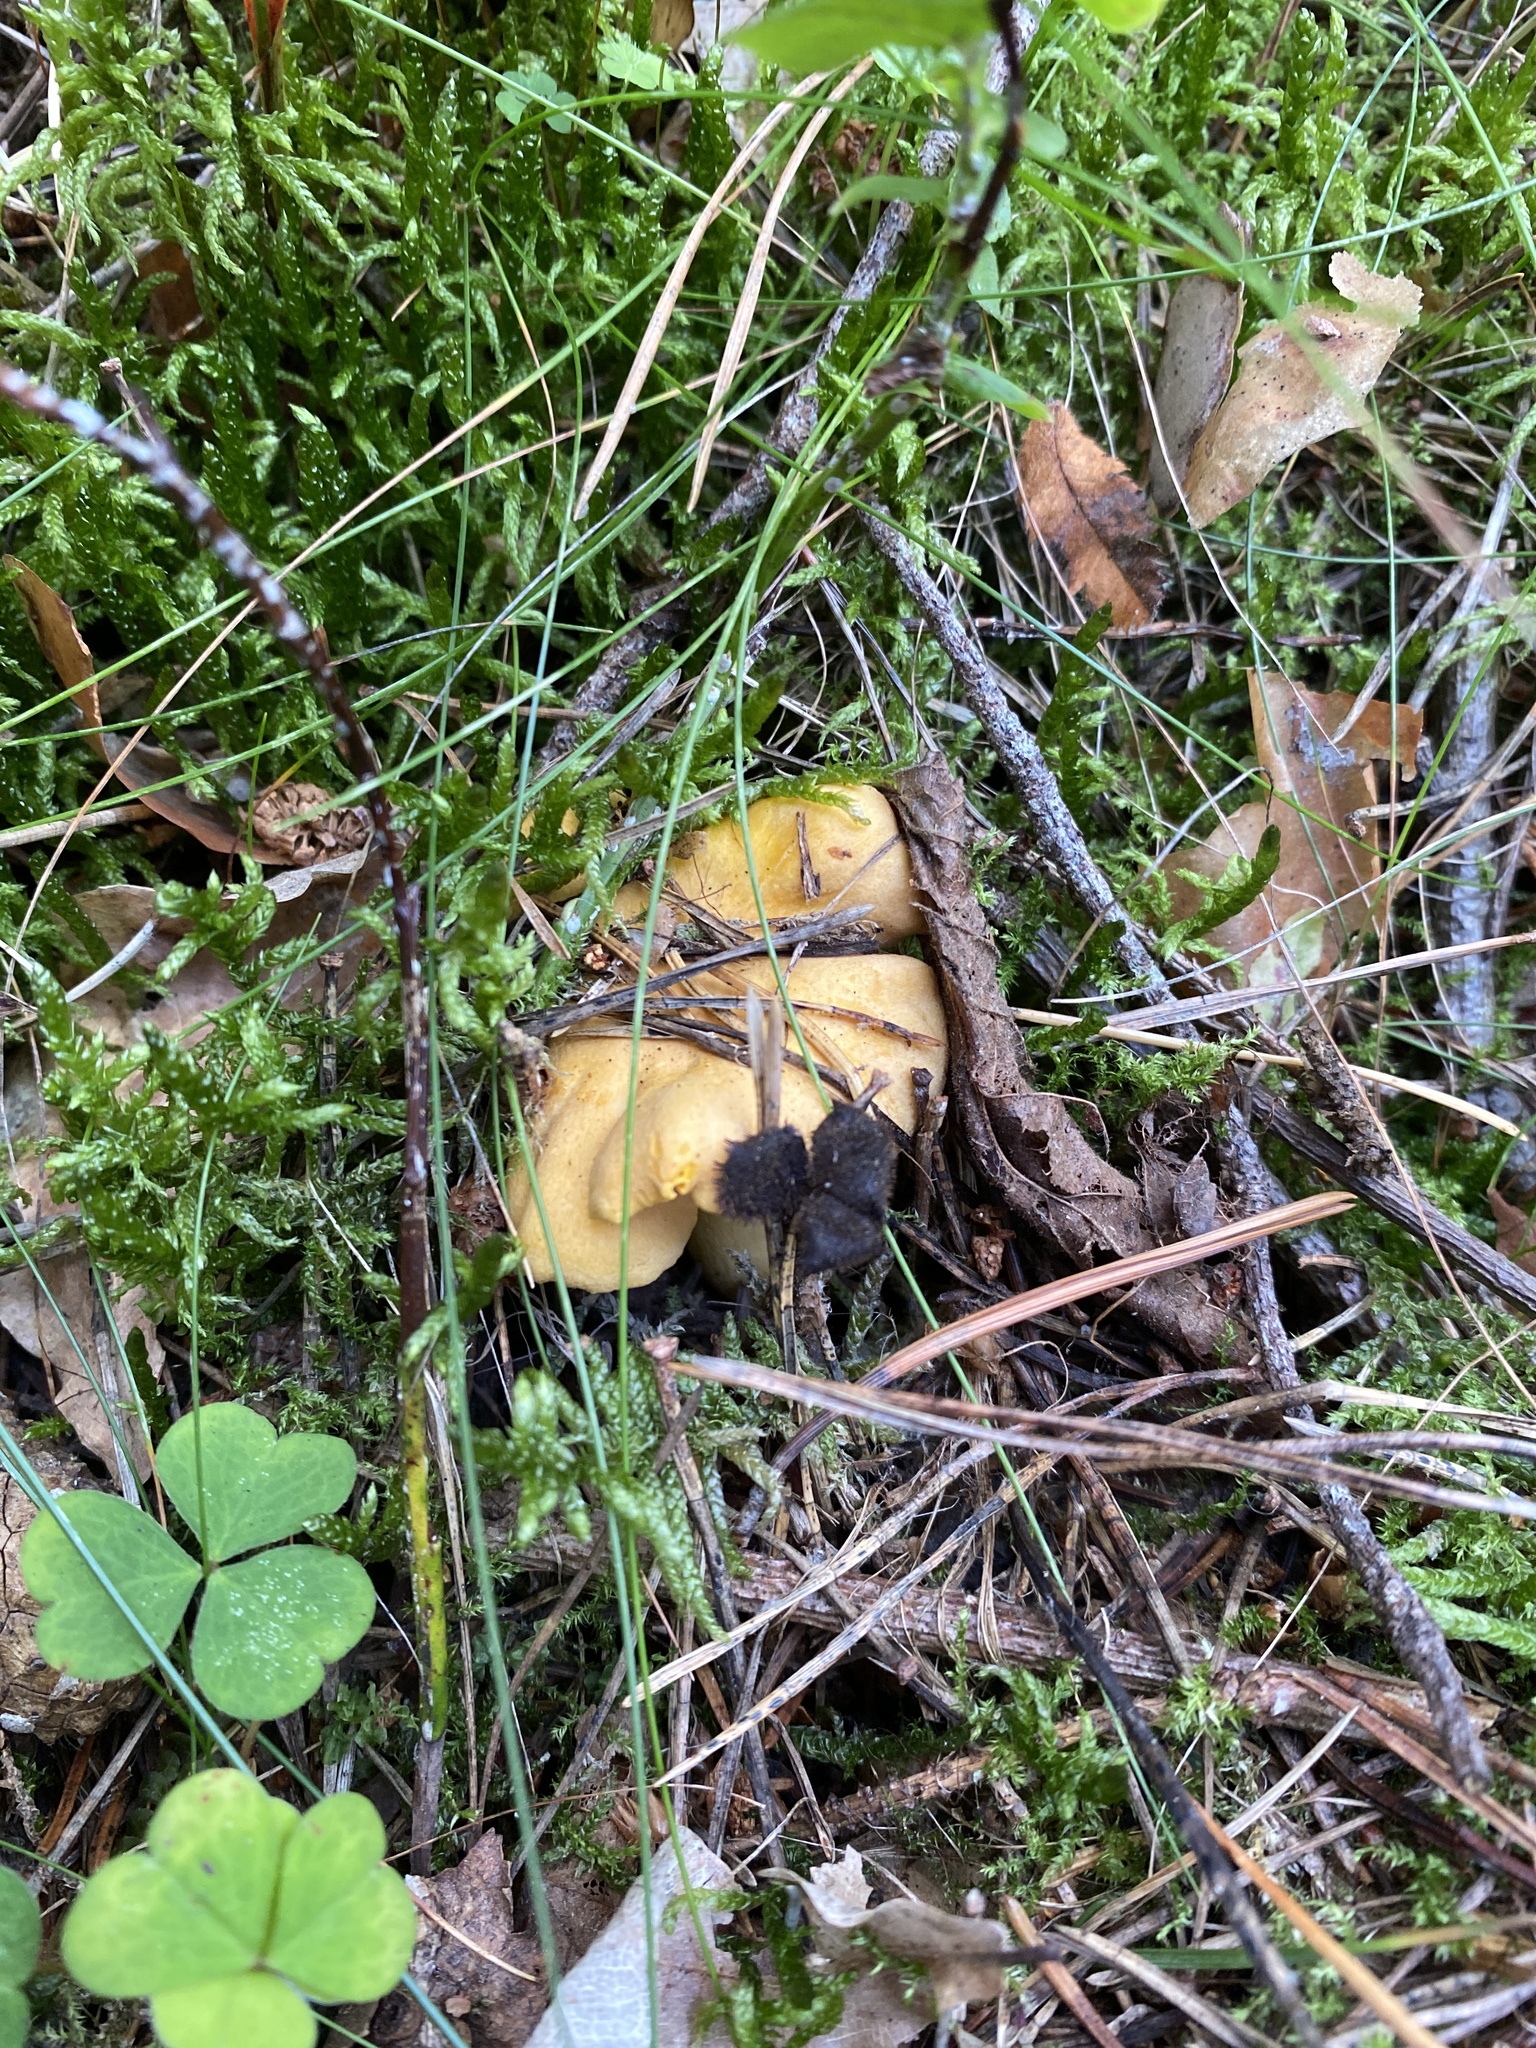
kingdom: Fungi
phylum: Basidiomycota
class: Agaricomycetes
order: Cantharellales
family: Hydnaceae
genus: Cantharellus
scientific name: Cantharellus cibarius
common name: Chanterelle
